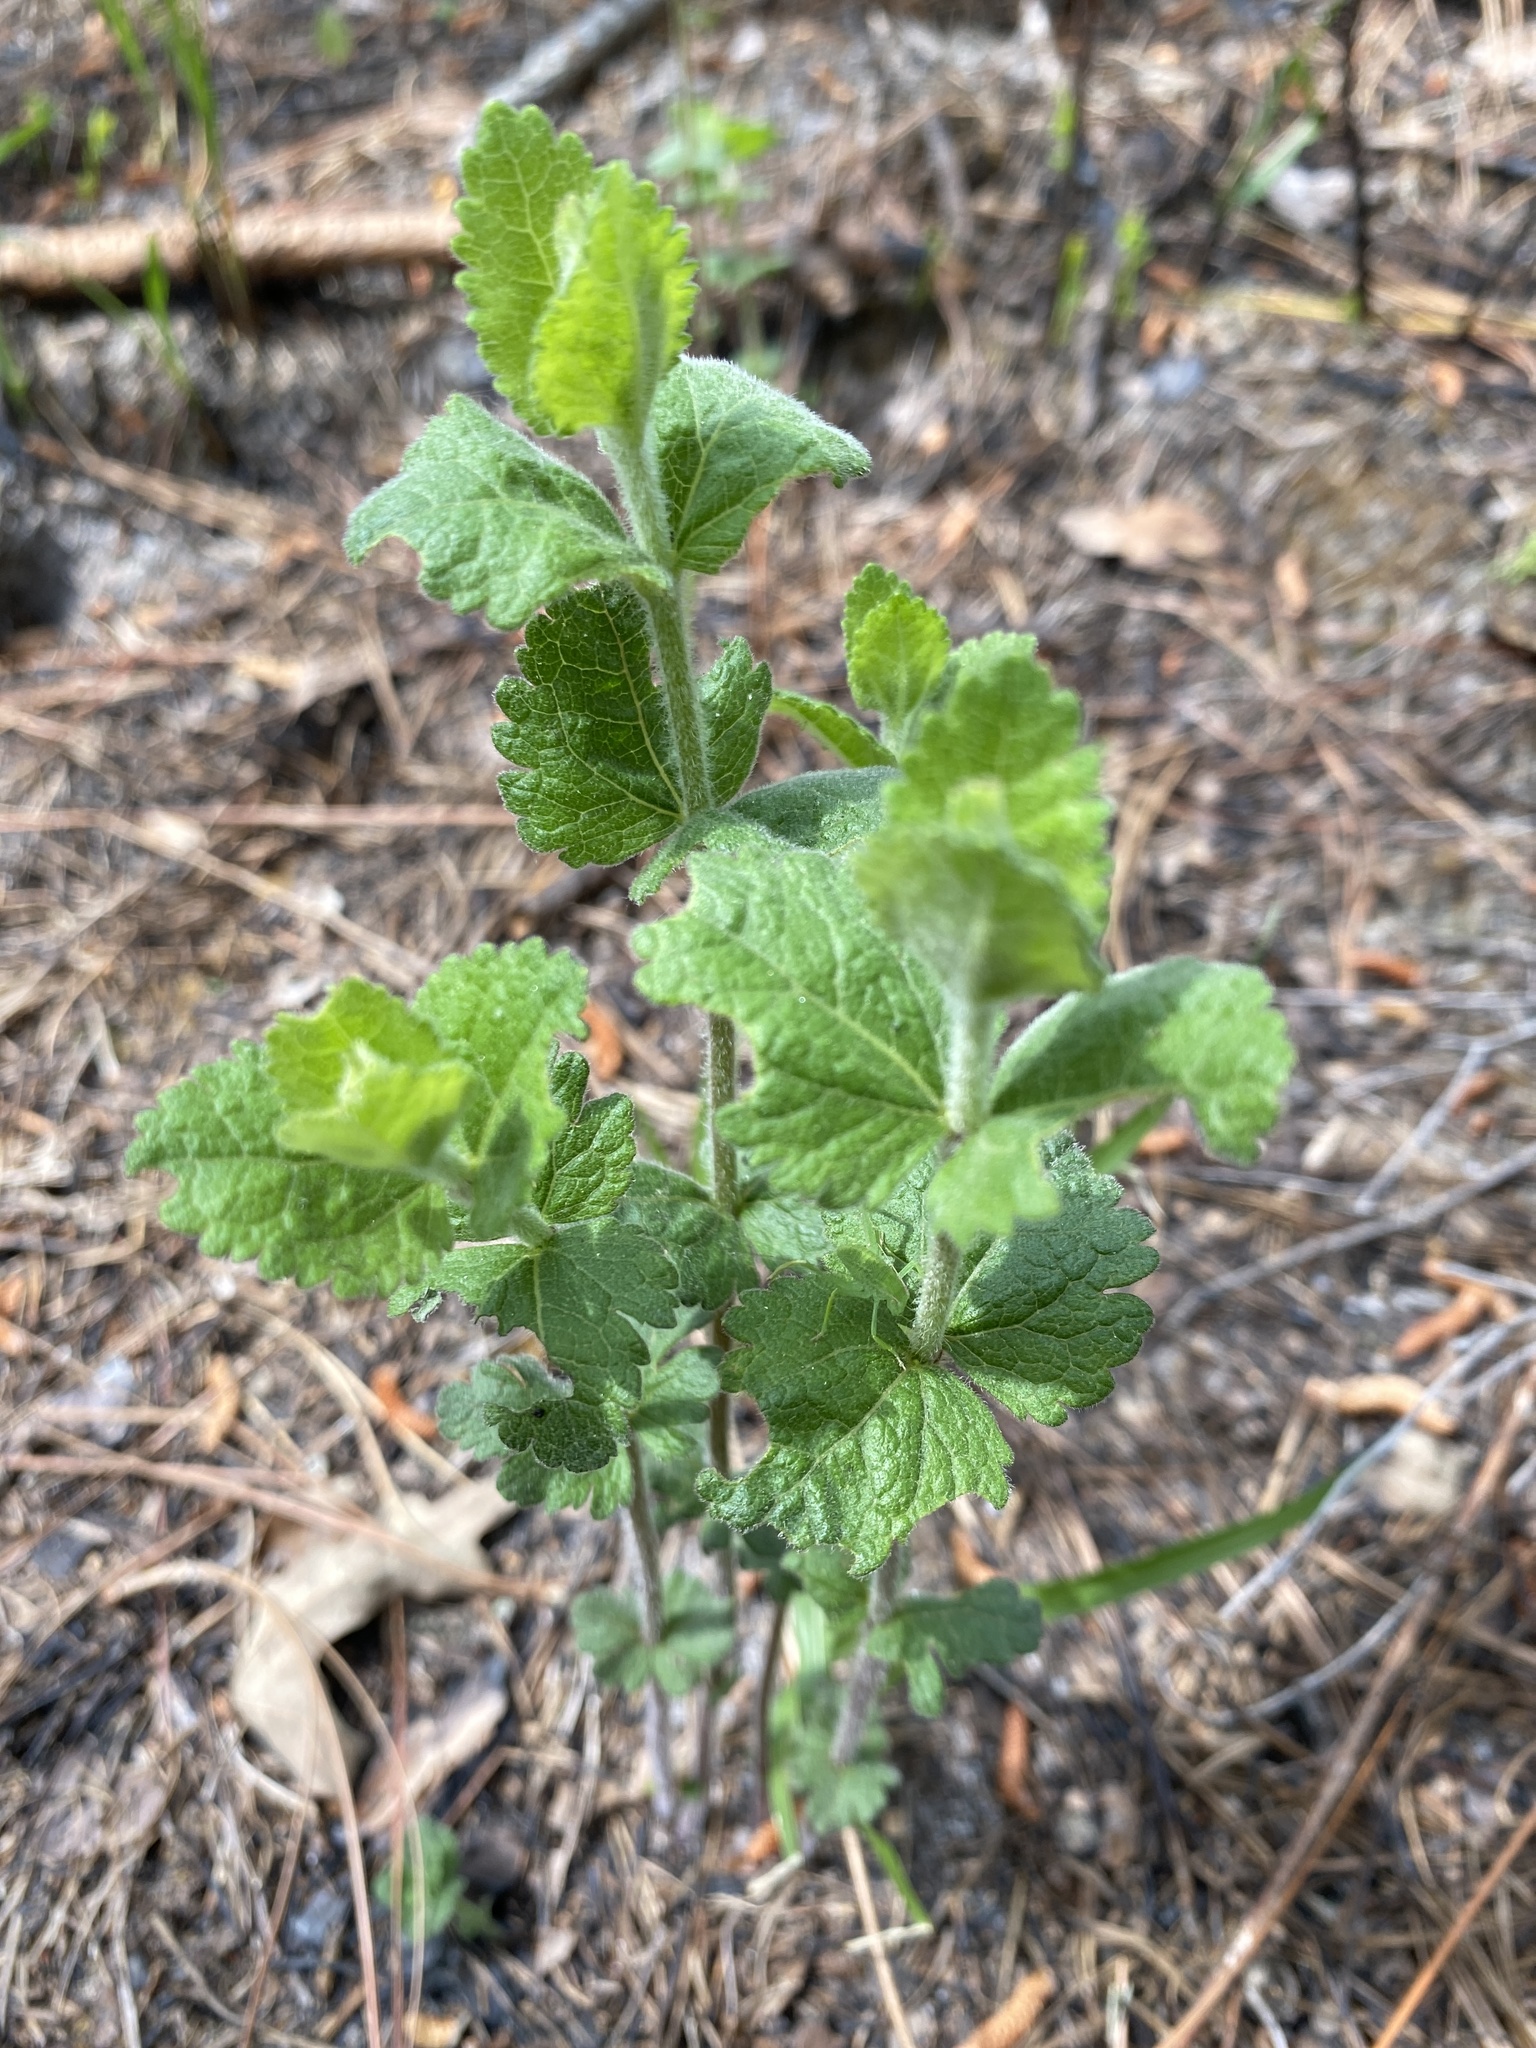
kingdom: Plantae
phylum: Tracheophyta
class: Magnoliopsida
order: Asterales
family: Asteraceae
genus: Eupatorium
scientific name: Eupatorium rotundifolium
